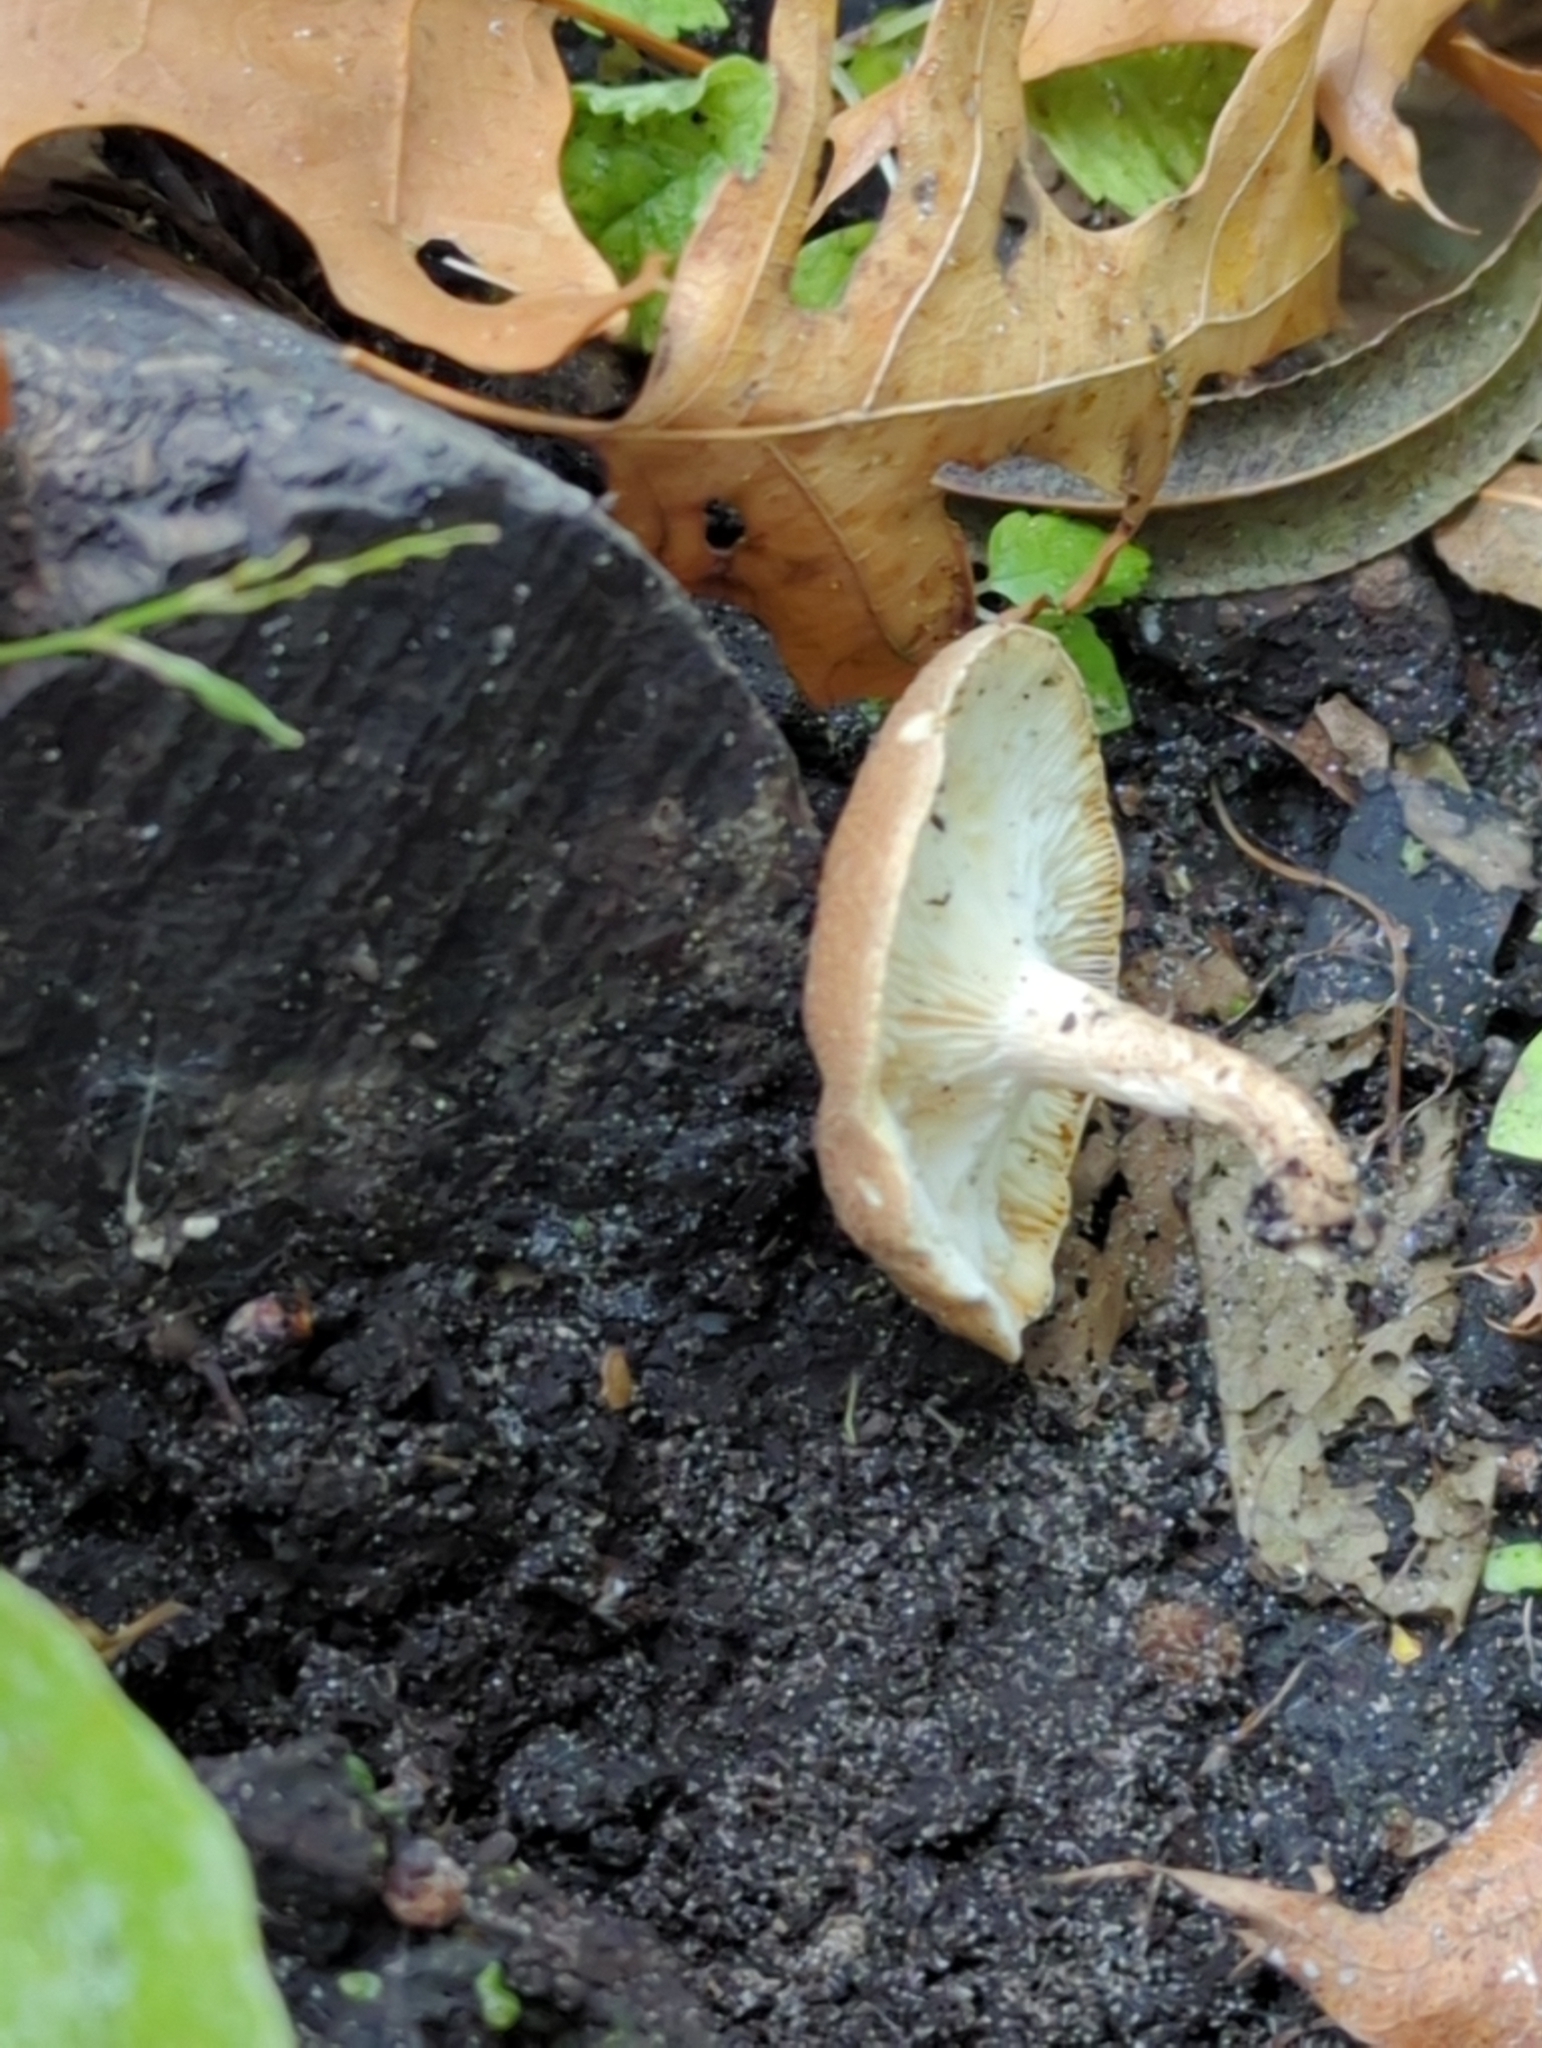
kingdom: Fungi
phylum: Basidiomycota
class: Agaricomycetes
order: Polyporales
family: Polyporaceae
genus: Lentinus
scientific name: Lentinus tigrinus
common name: Tiger sawgill
